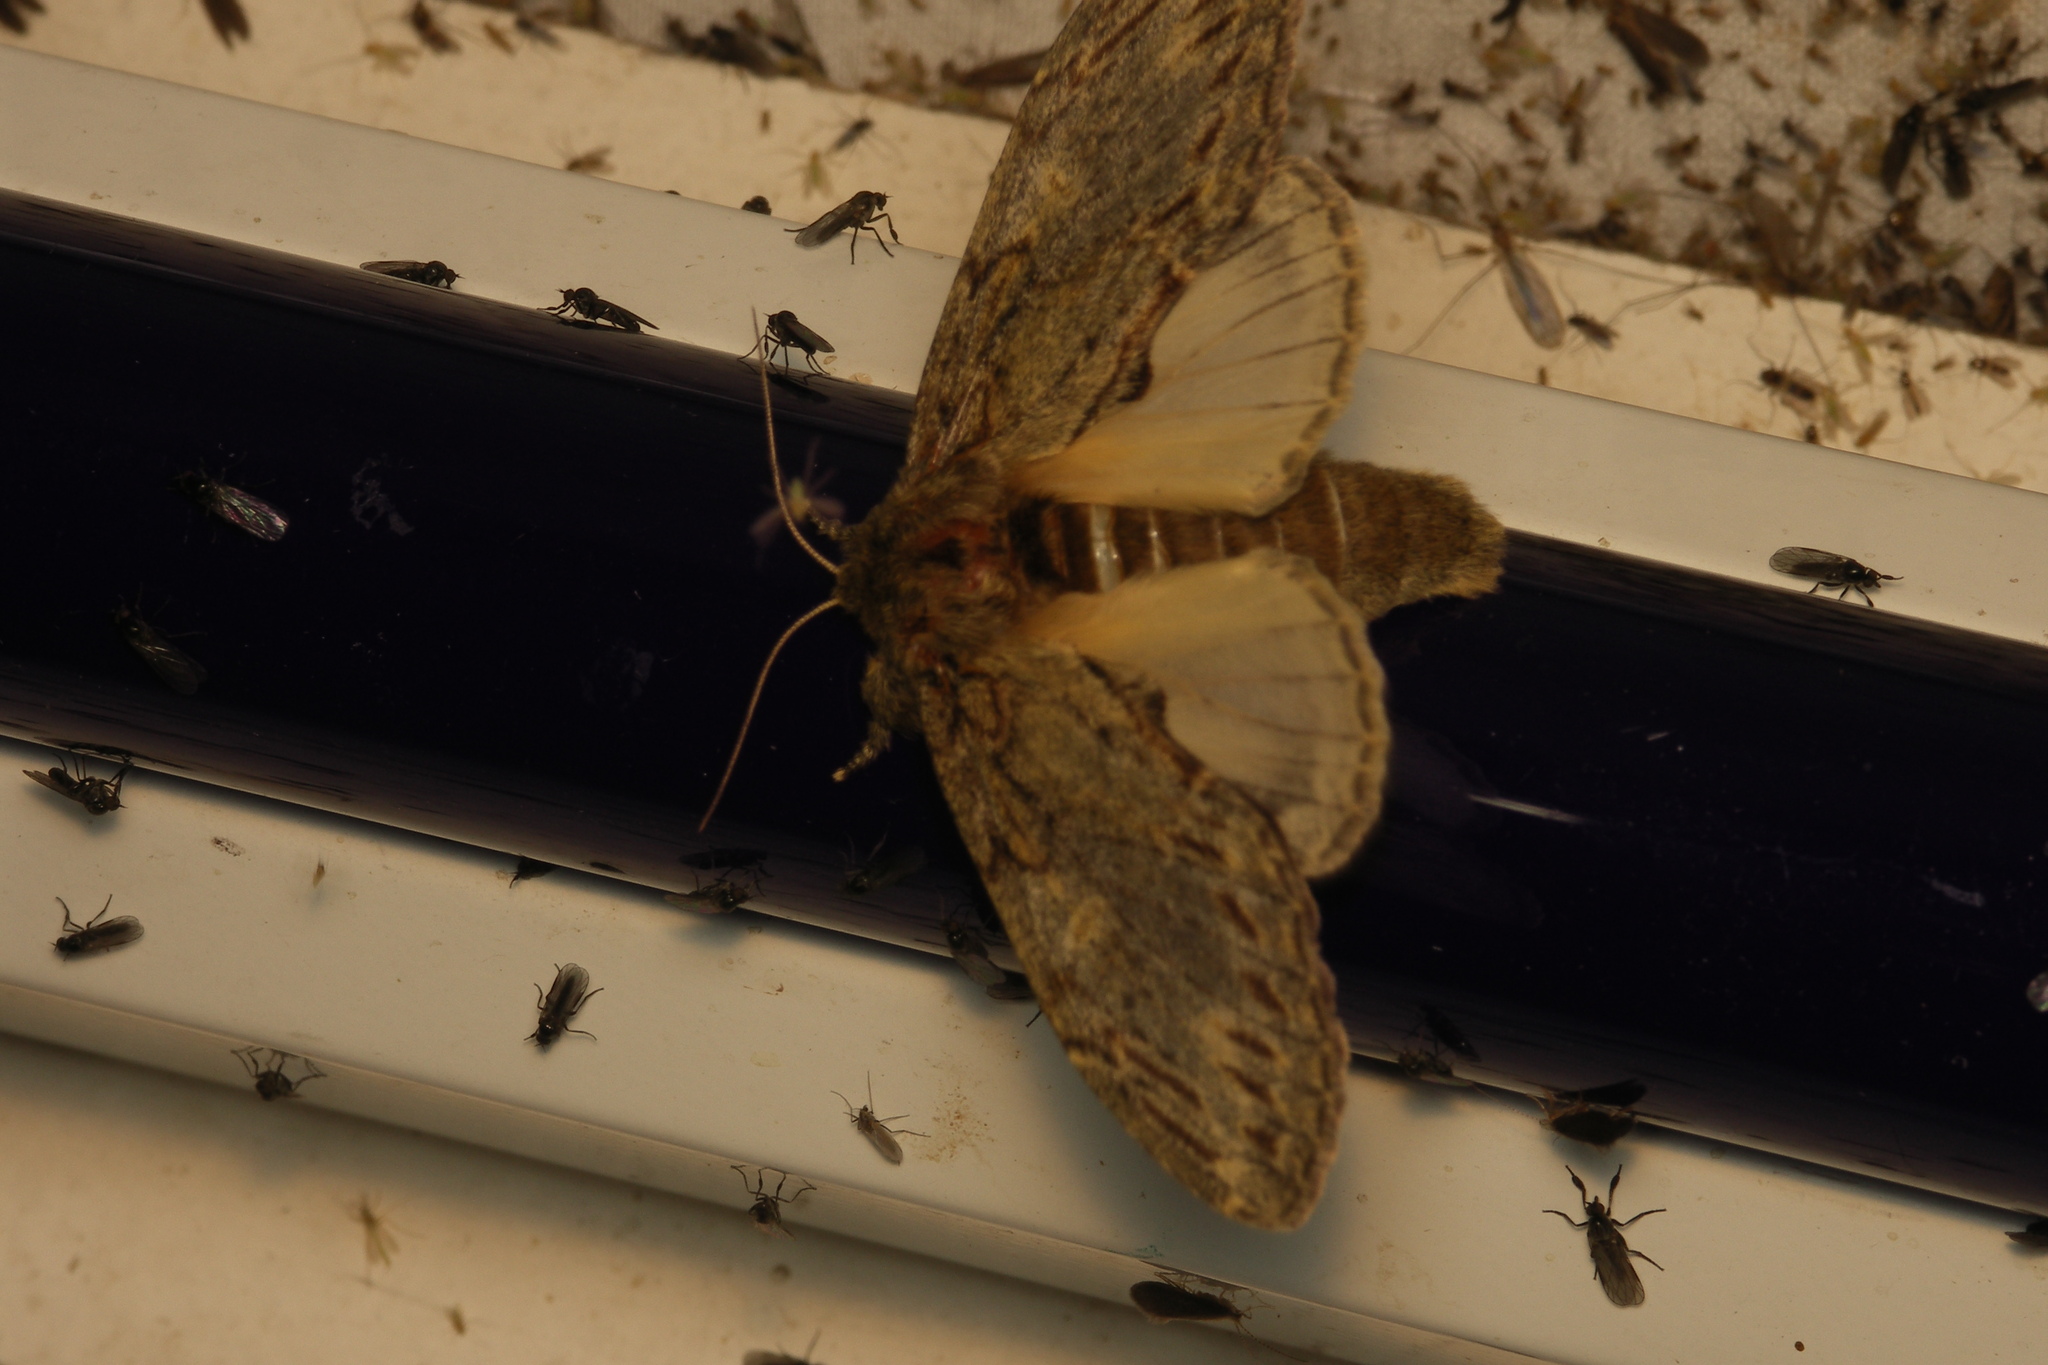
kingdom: Animalia
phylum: Arthropoda
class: Insecta
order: Lepidoptera
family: Notodontidae
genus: Peridea
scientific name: Peridea anceps
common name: Great prominent
